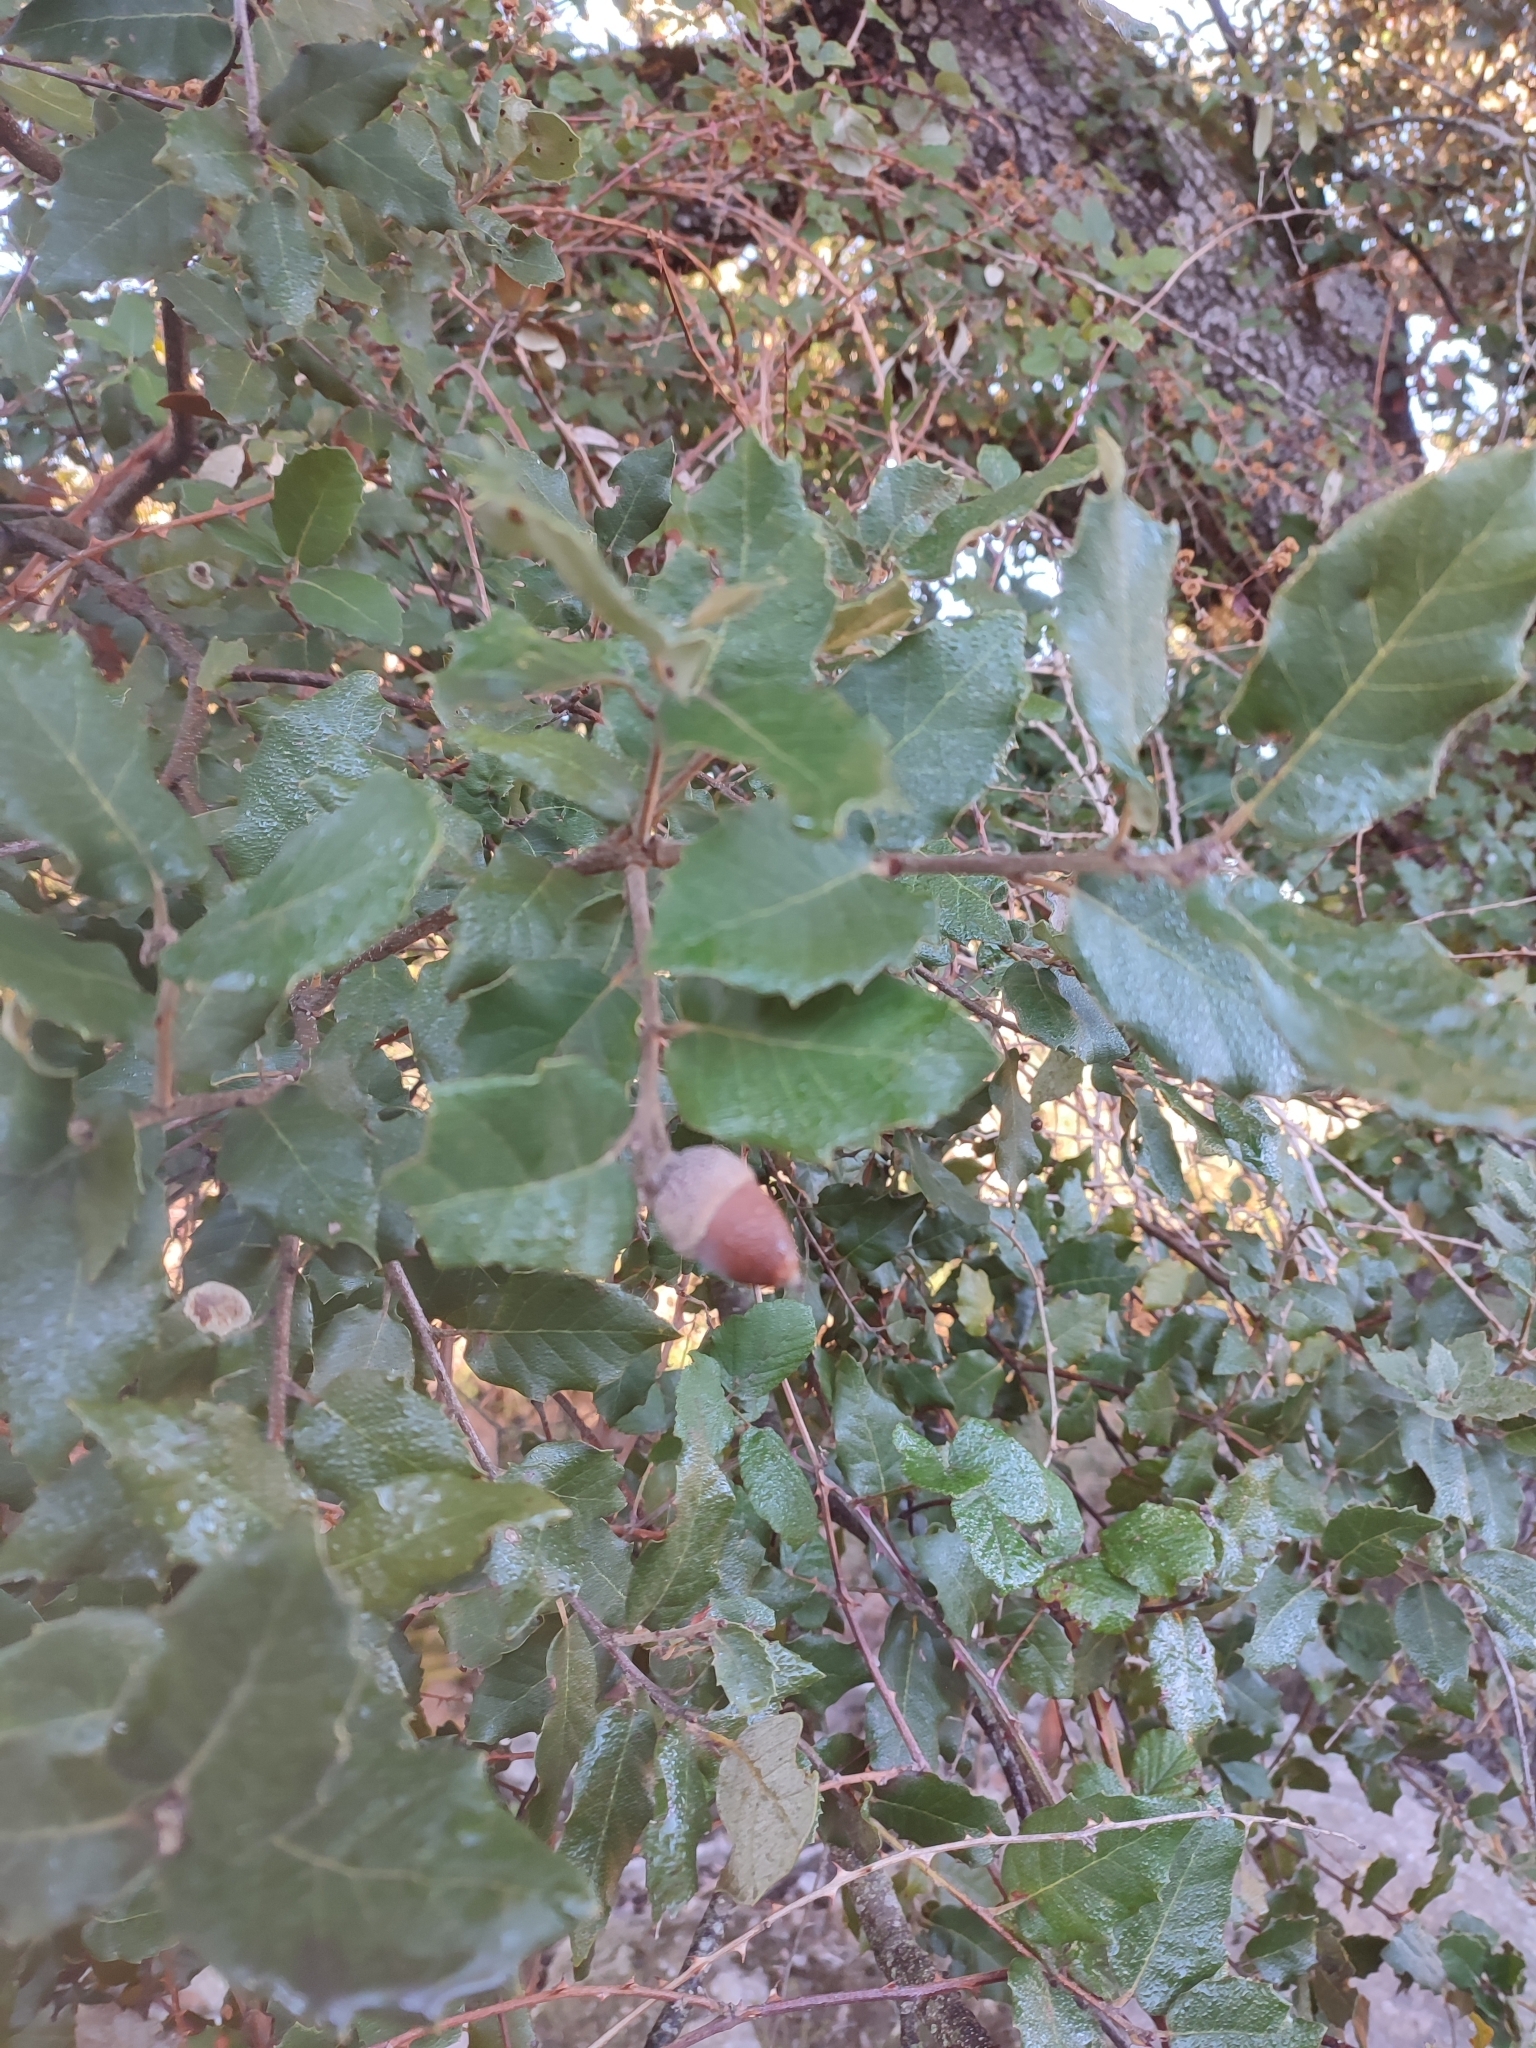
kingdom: Plantae
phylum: Tracheophyta
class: Magnoliopsida
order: Fagales
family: Fagaceae
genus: Quercus
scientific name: Quercus ilex
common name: Evergreen oak
